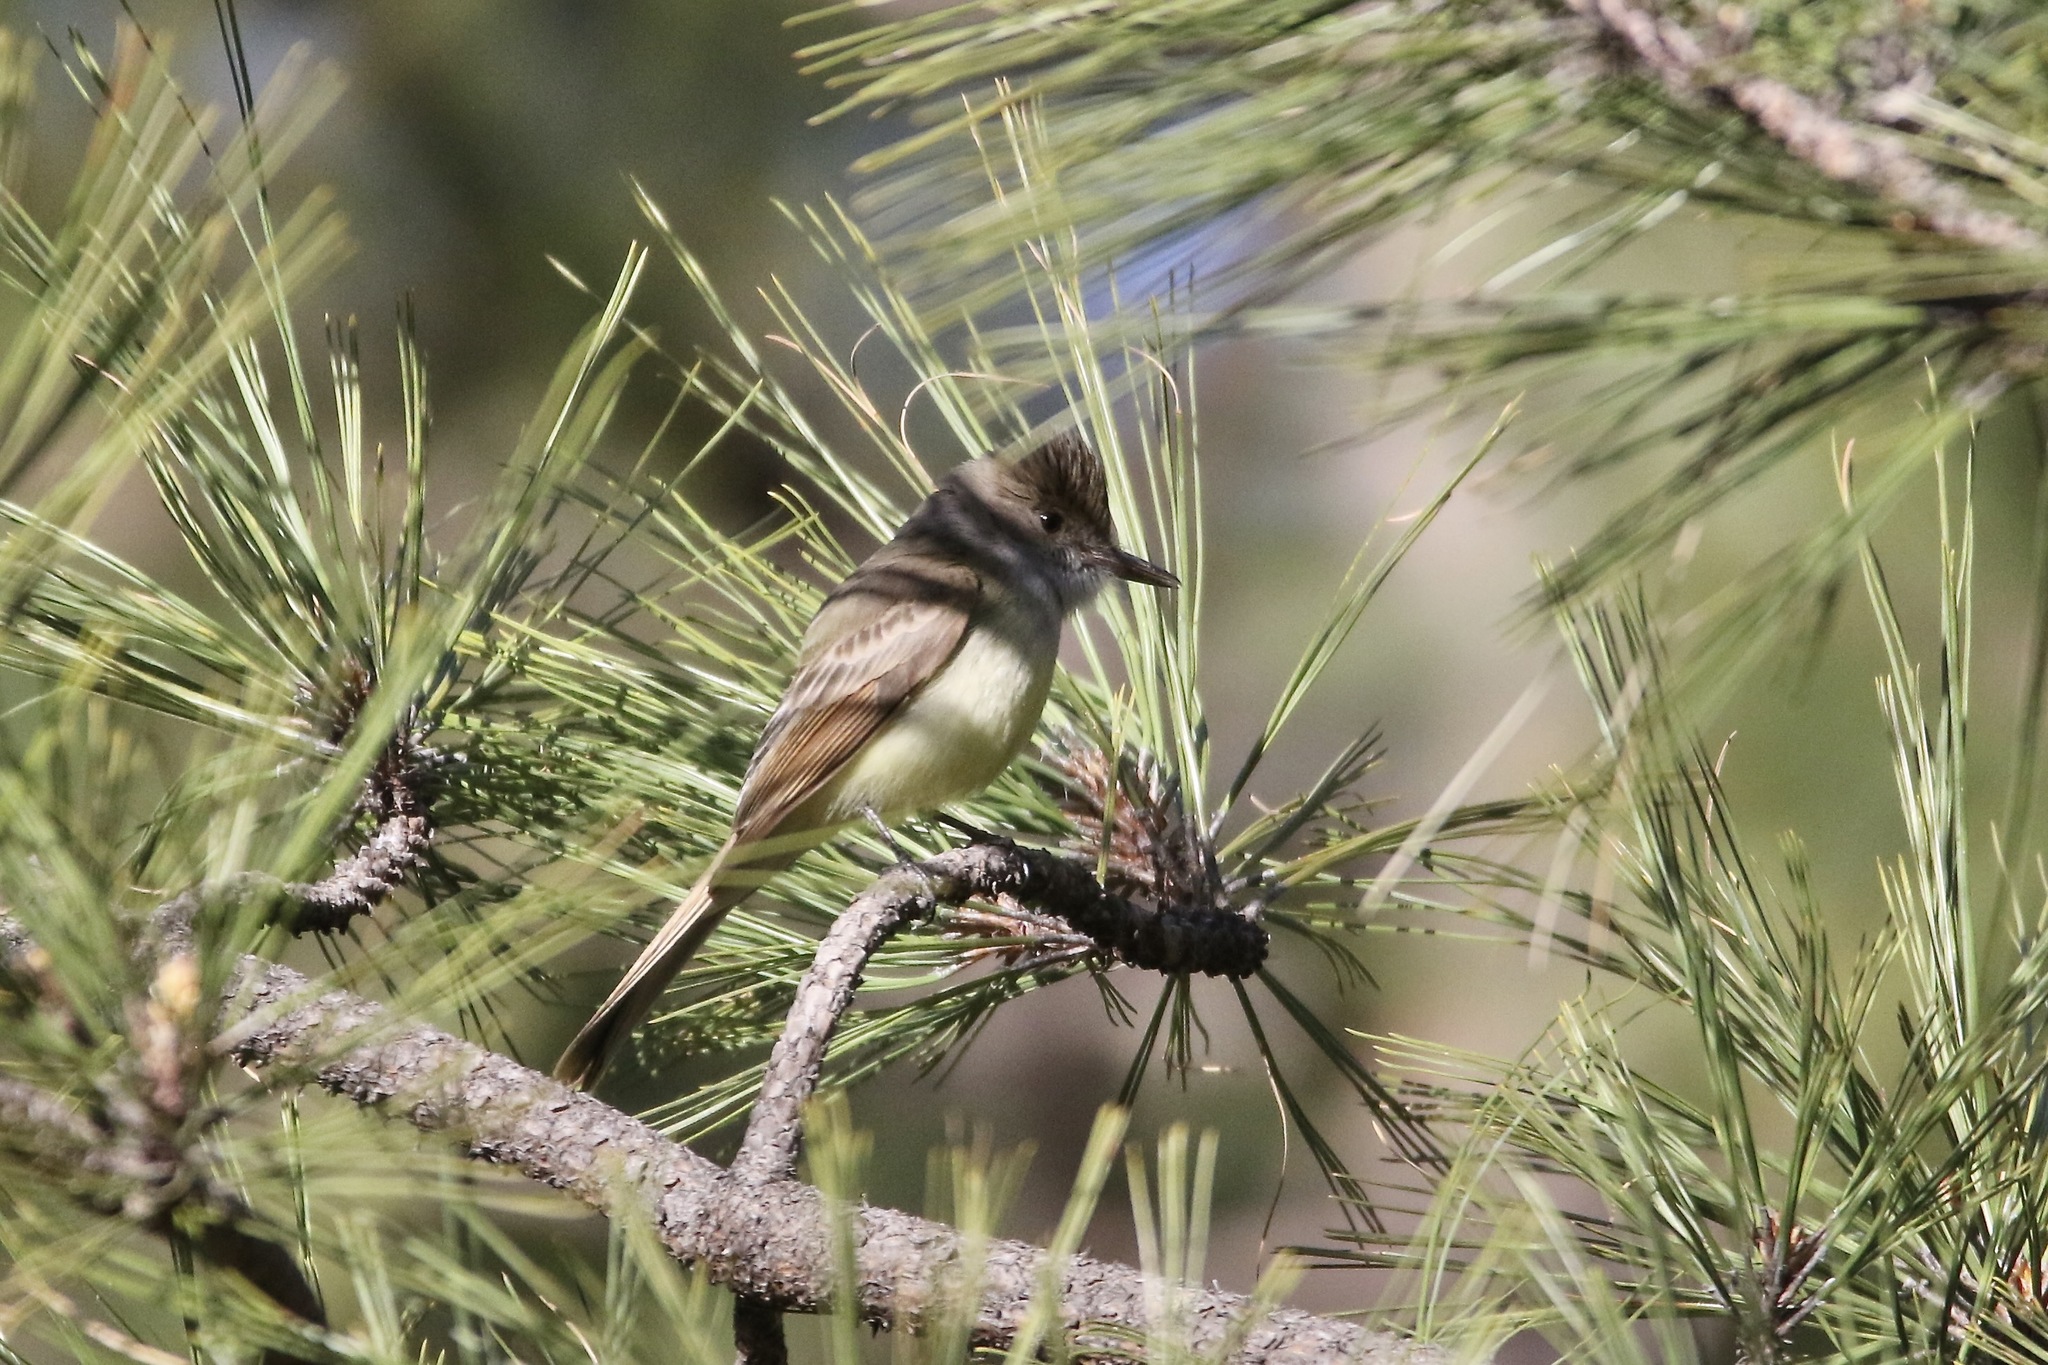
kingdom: Animalia
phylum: Chordata
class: Aves
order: Passeriformes
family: Tyrannidae
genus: Myiarchus
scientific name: Myiarchus tuberculifer
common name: Dusky-capped flycatcher
